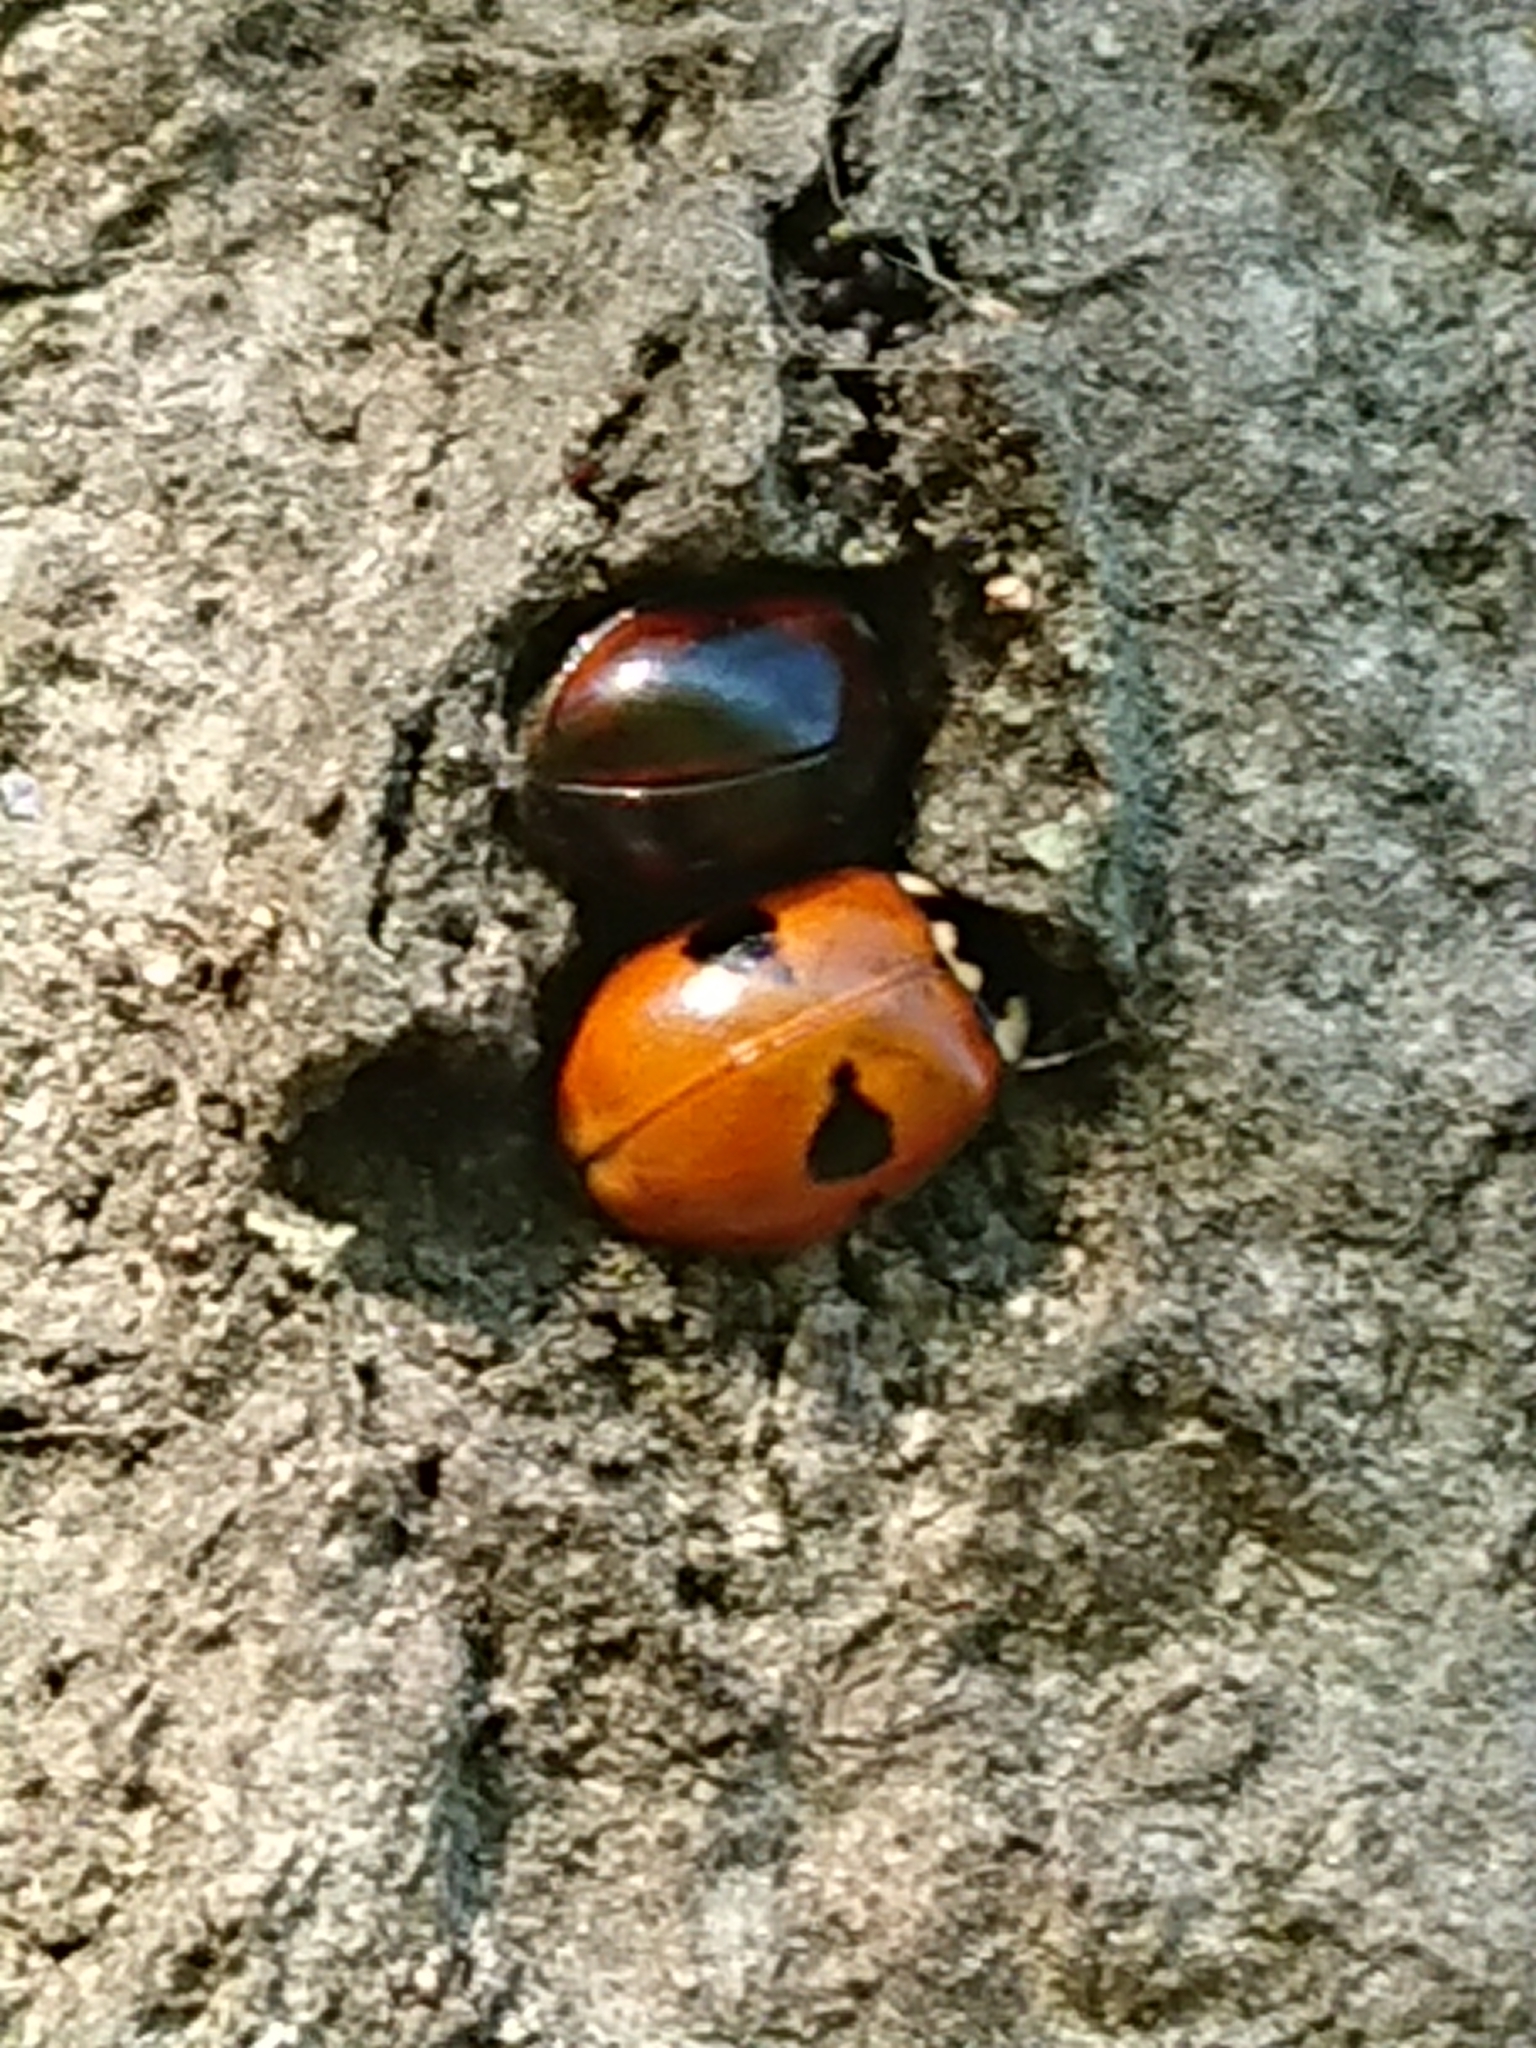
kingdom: Animalia
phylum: Arthropoda
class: Insecta
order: Coleoptera
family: Coccinellidae
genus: Adalia
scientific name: Adalia bipunctata
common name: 2-spot ladybird
